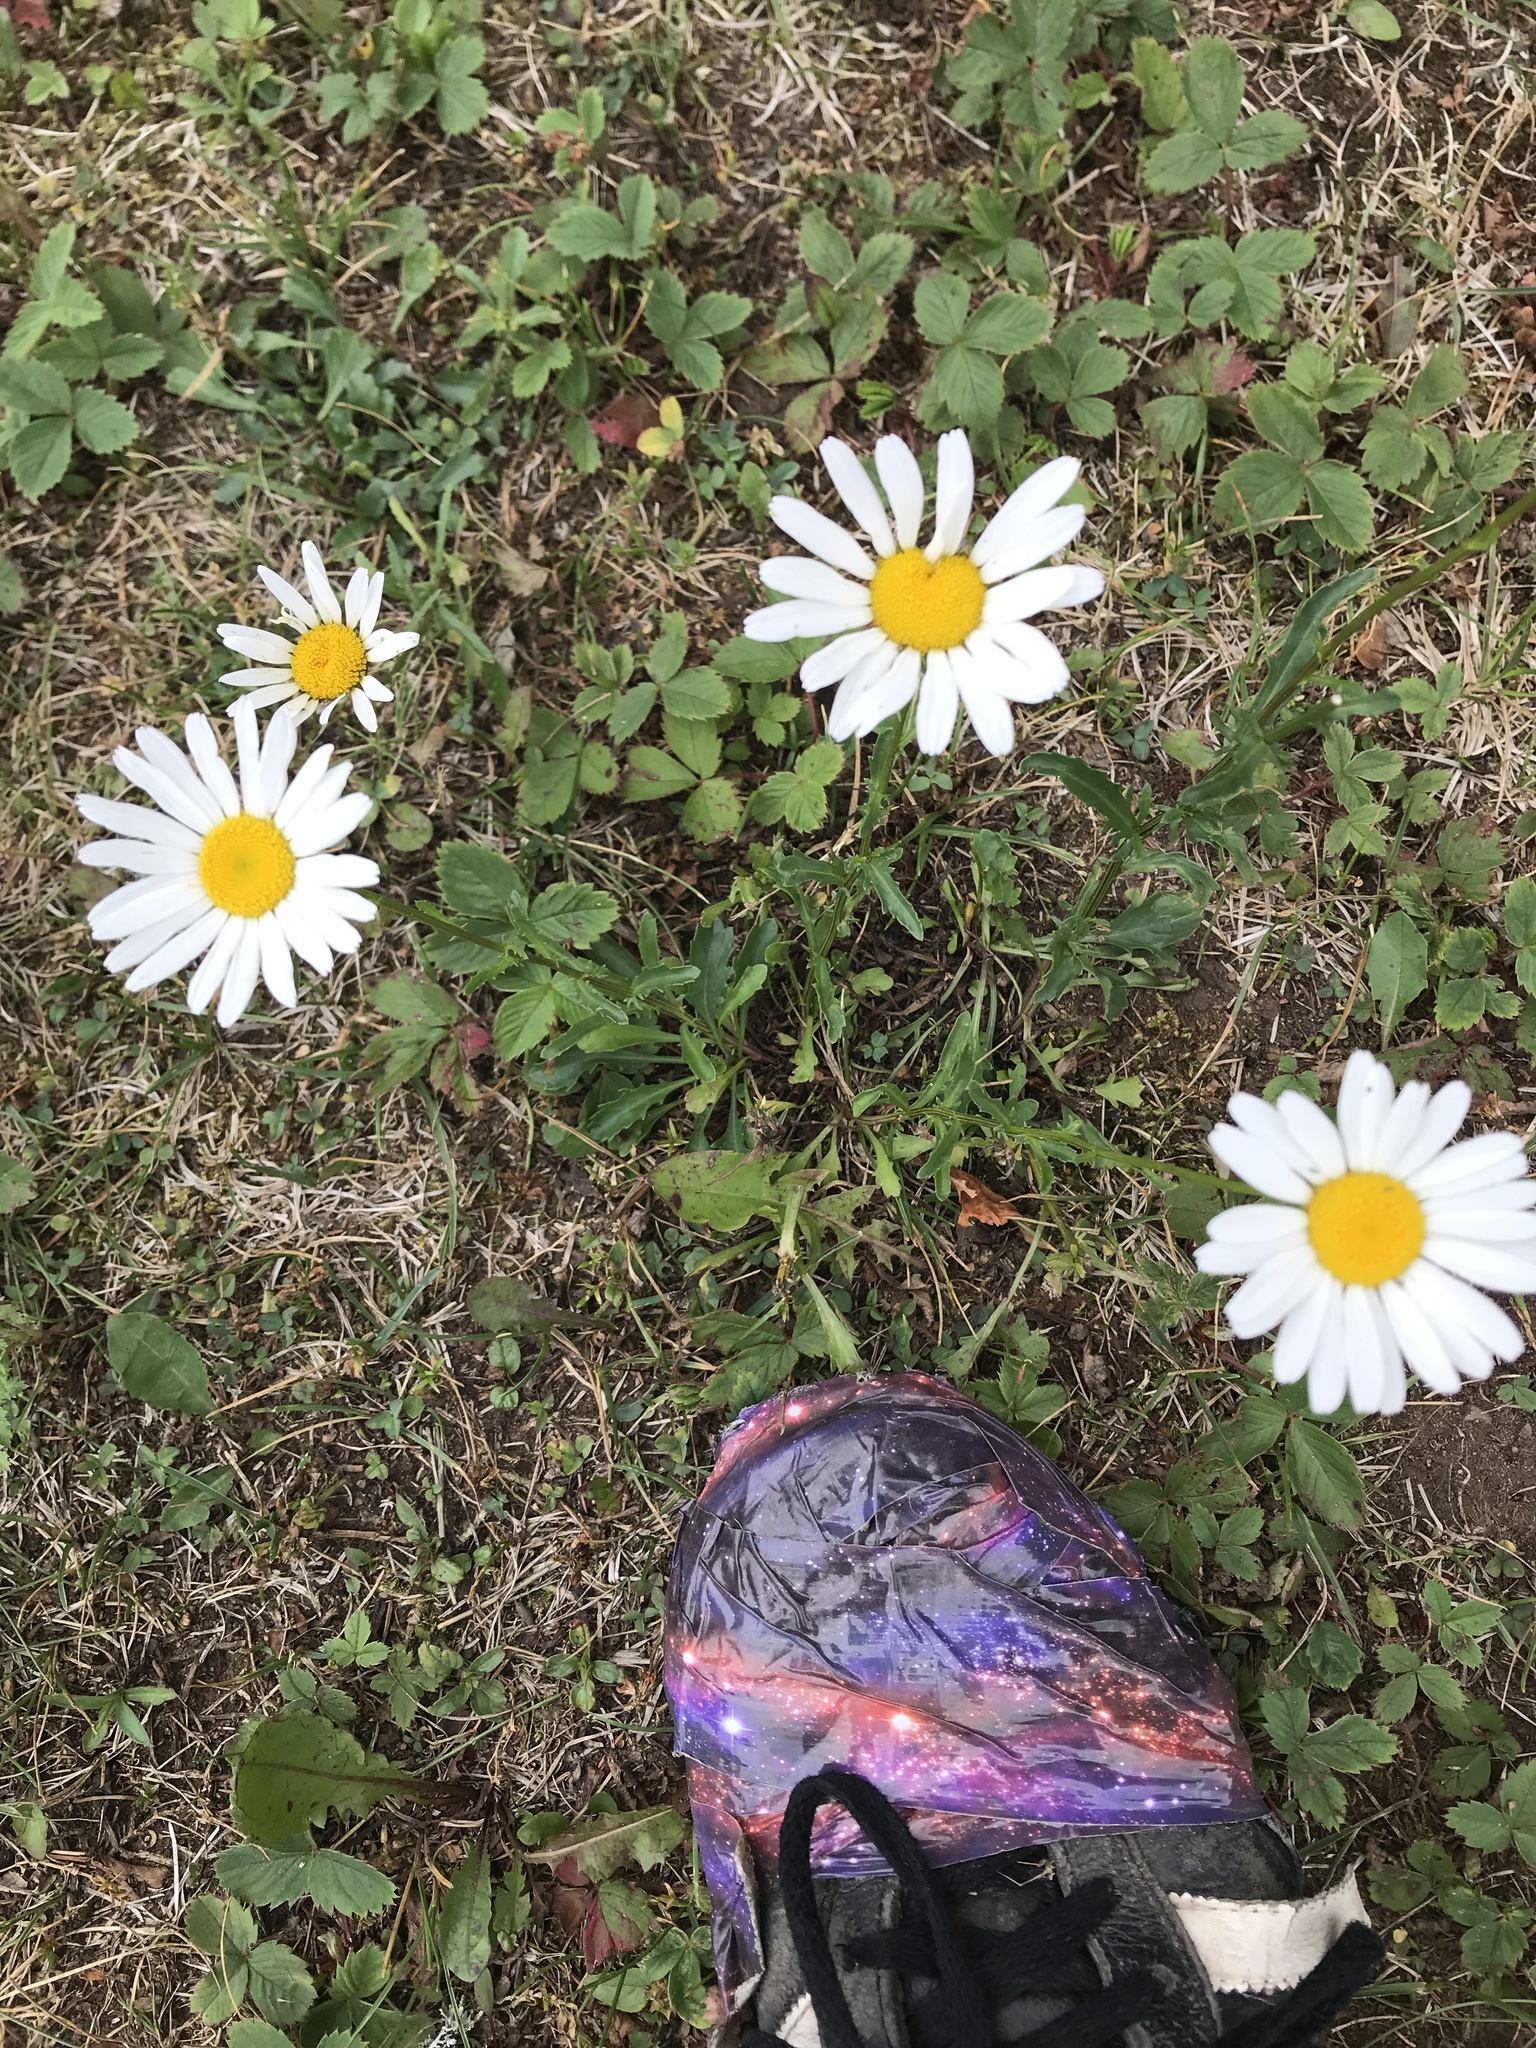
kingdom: Plantae
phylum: Tracheophyta
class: Magnoliopsida
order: Asterales
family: Asteraceae
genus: Leucanthemum
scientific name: Leucanthemum vulgare
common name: Oxeye daisy
